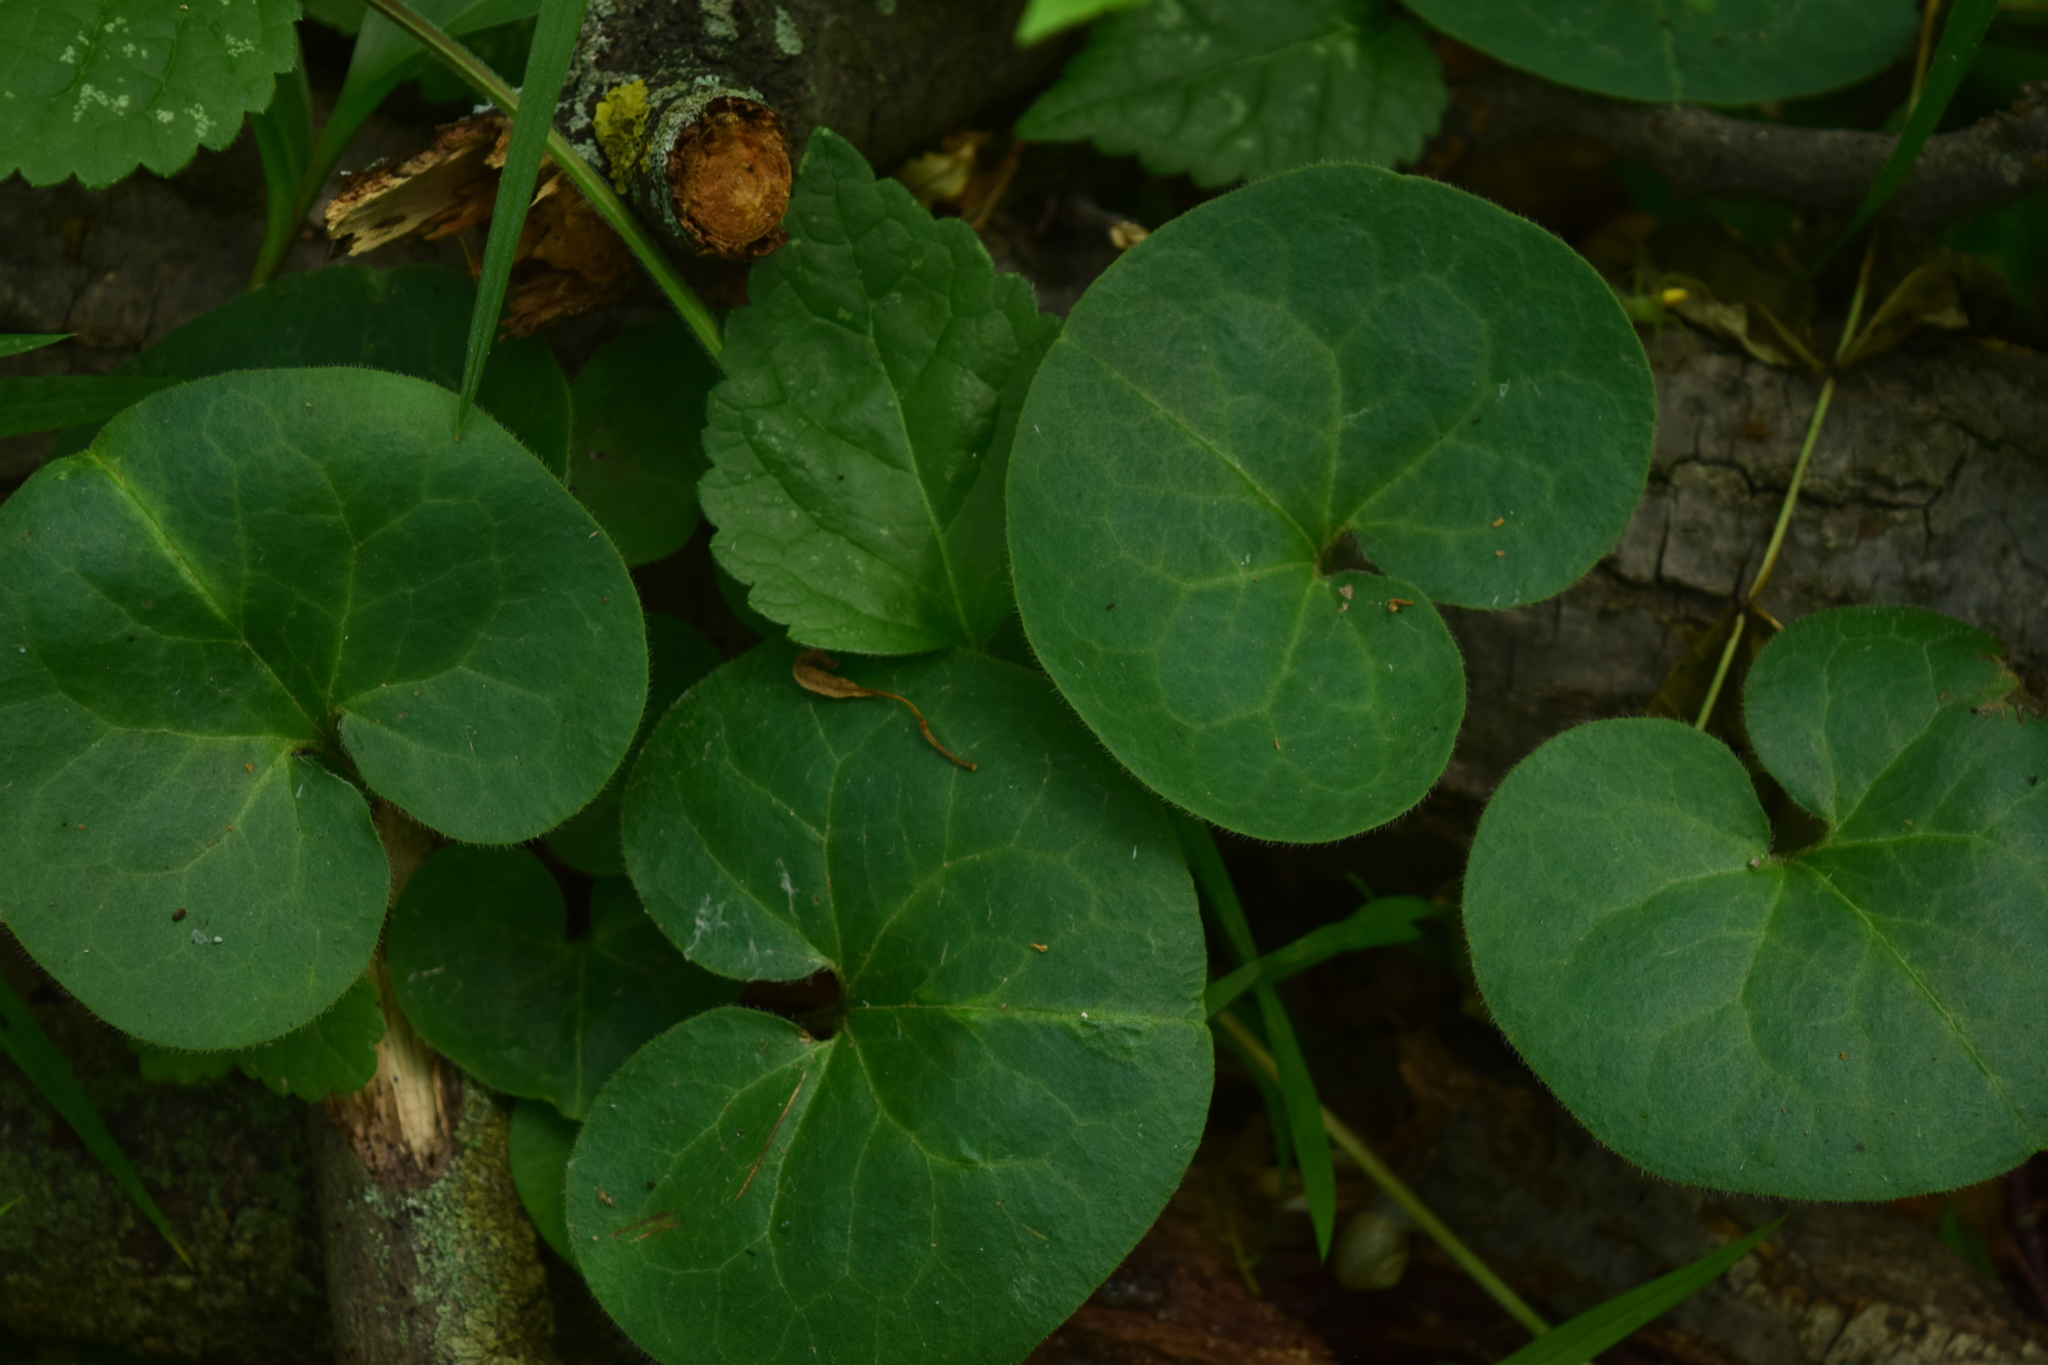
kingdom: Plantae
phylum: Tracheophyta
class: Magnoliopsida
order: Piperales
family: Aristolochiaceae
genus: Asarum
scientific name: Asarum europaeum
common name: Asarabacca
